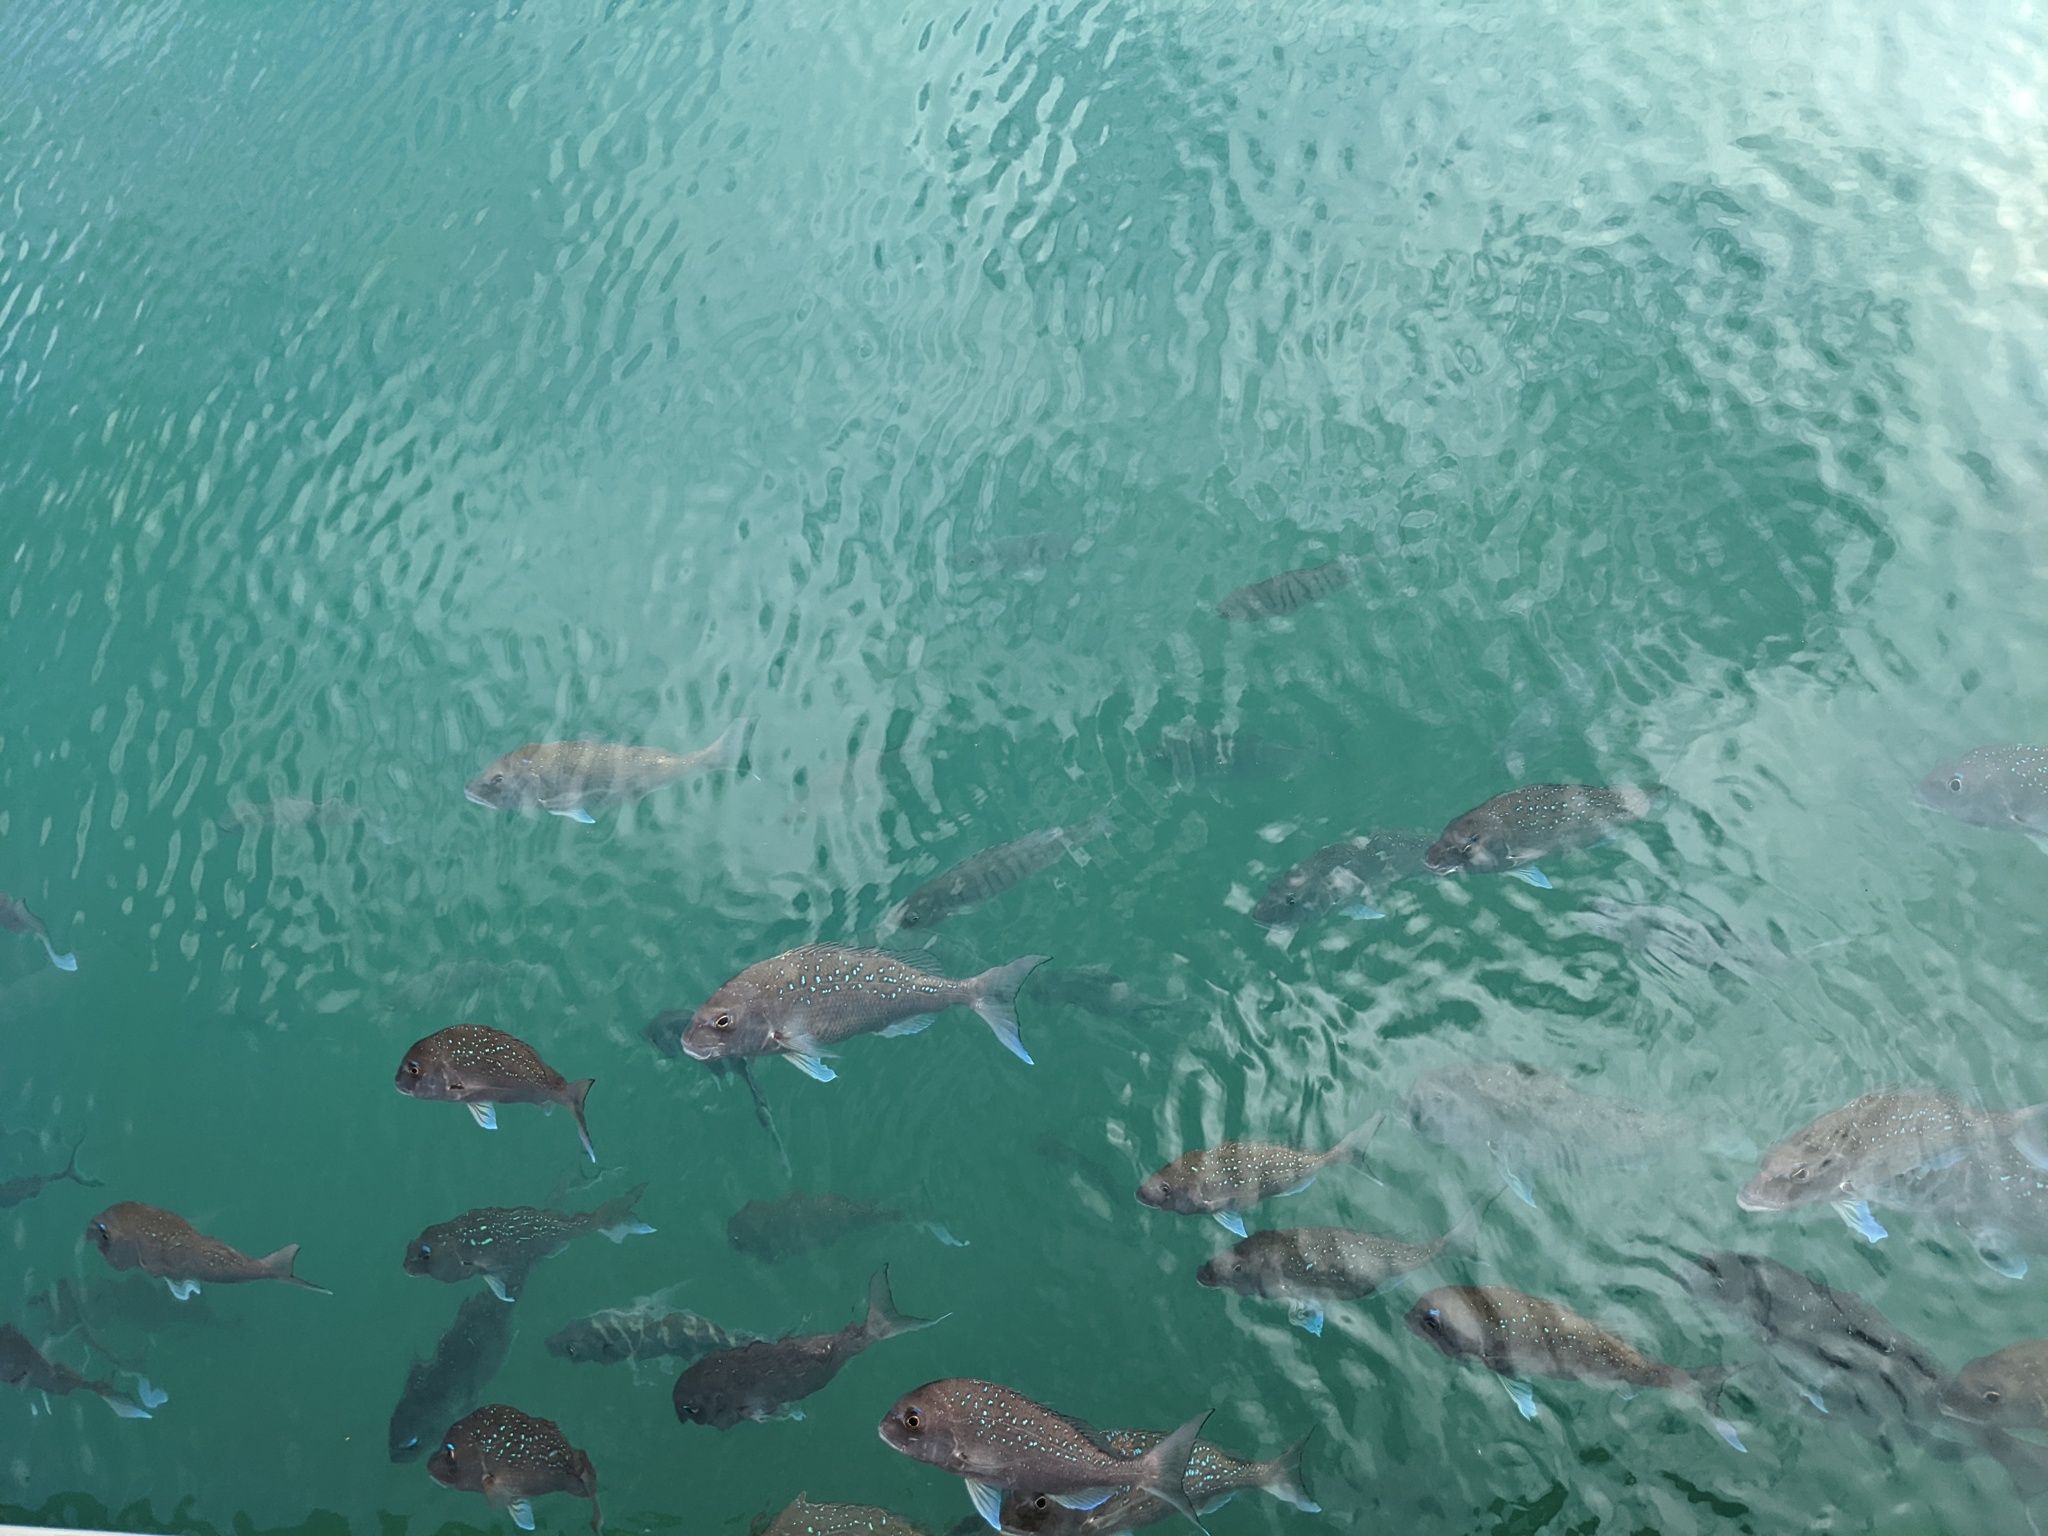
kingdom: Animalia
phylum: Chordata
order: Perciformes
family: Sparidae
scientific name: Sparidae
